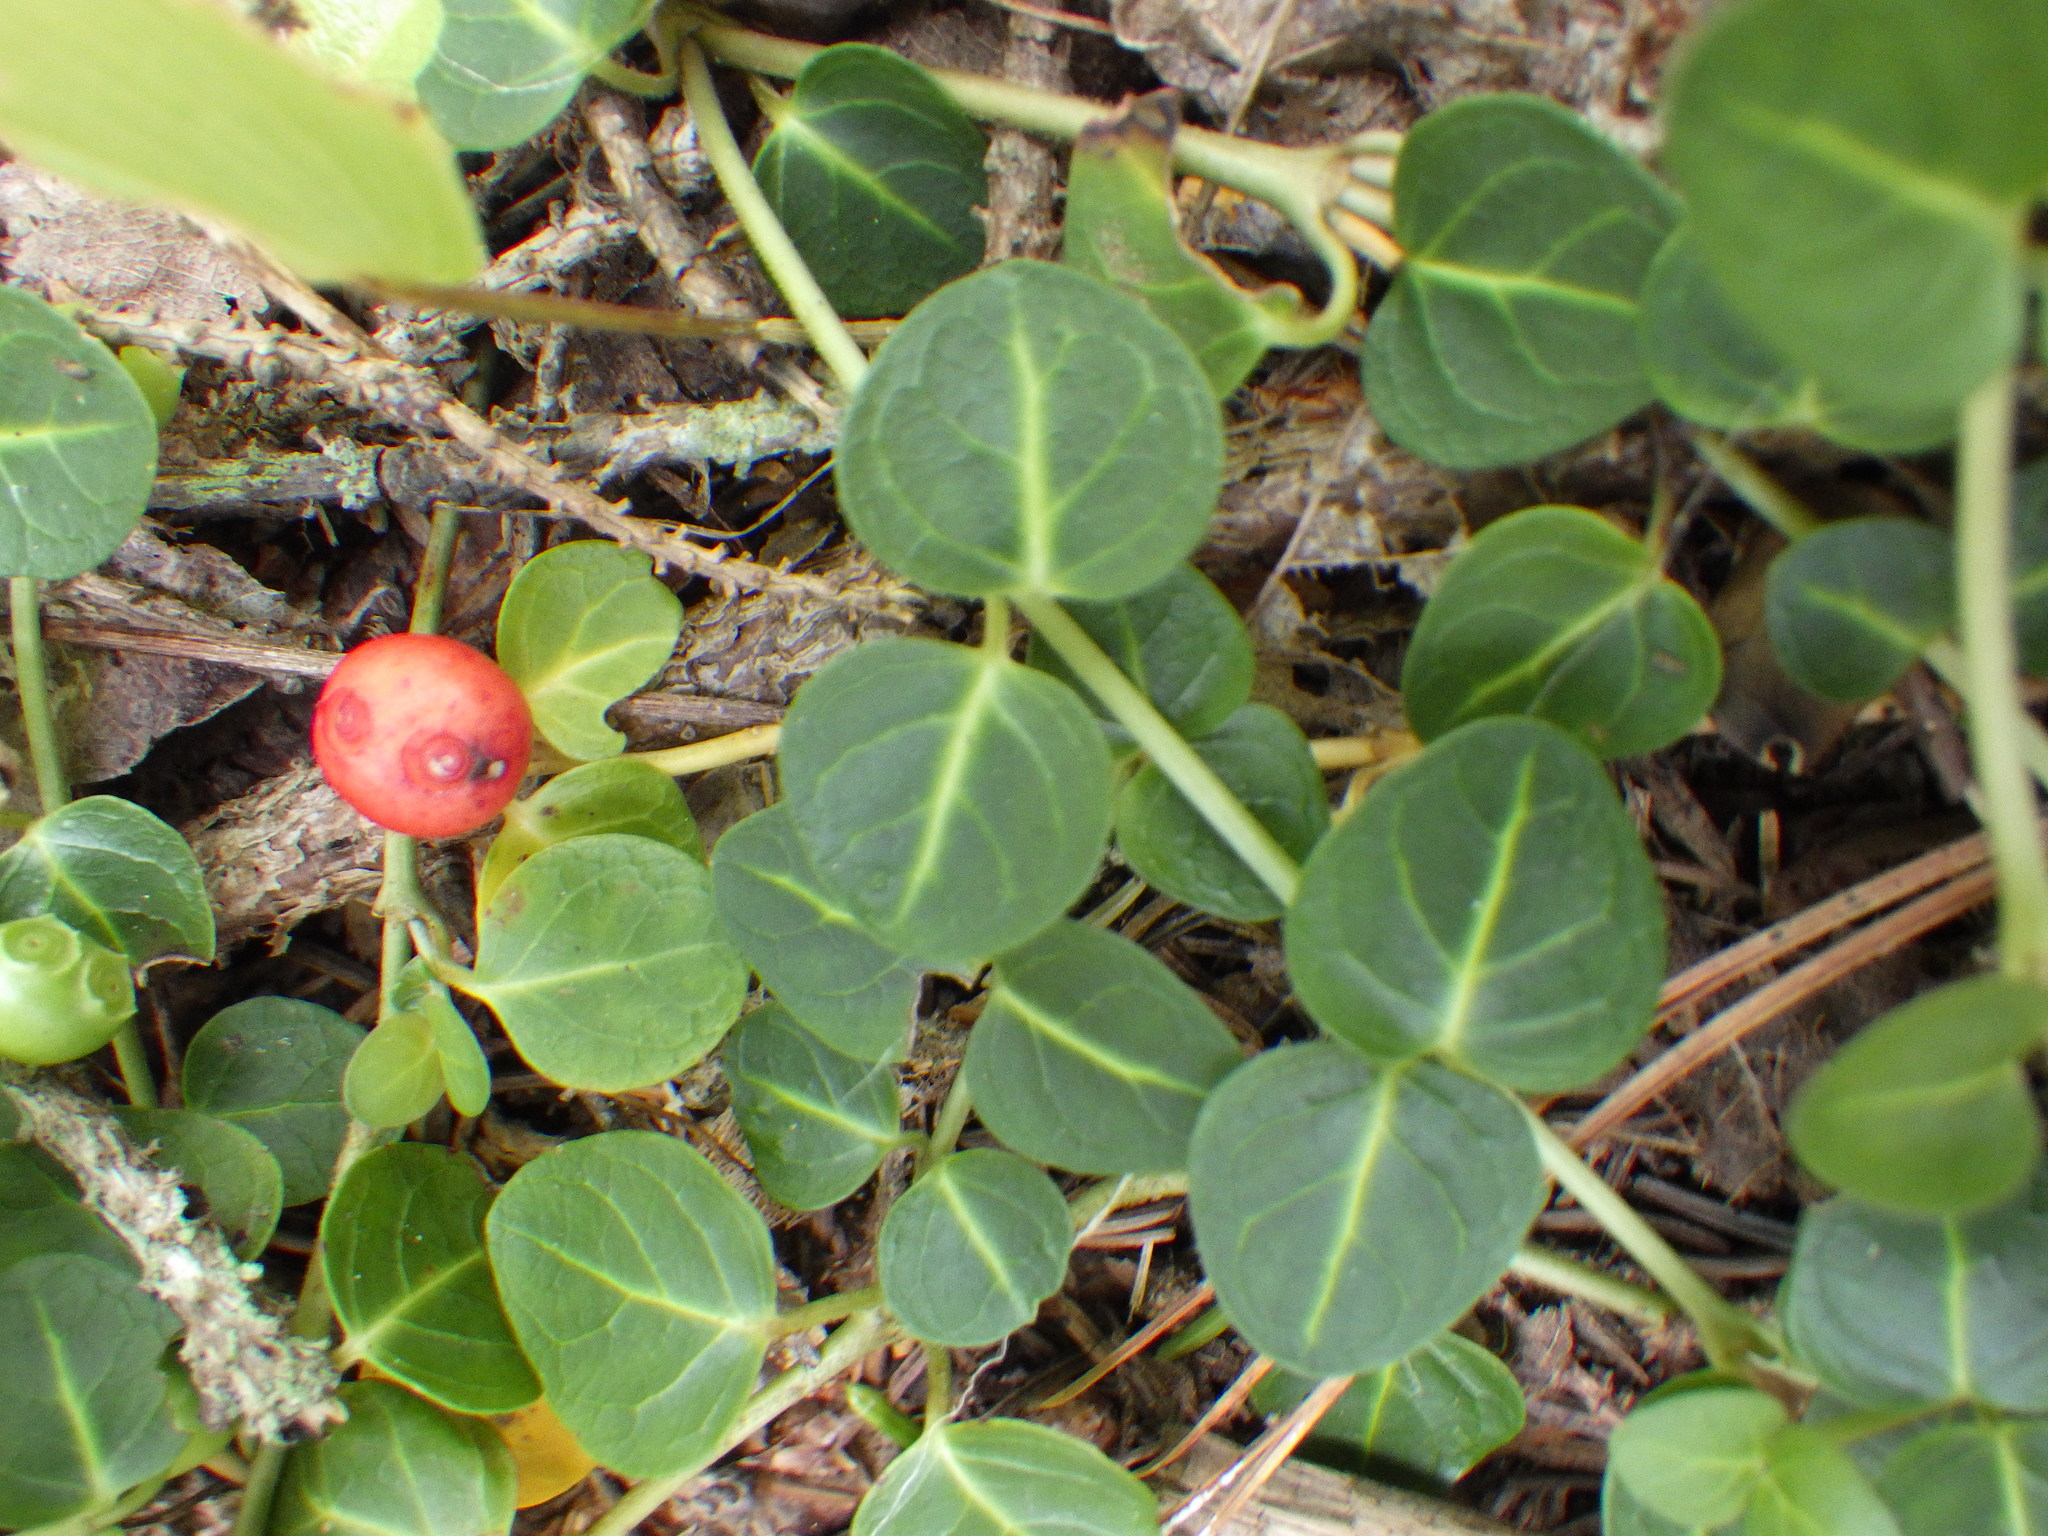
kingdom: Plantae
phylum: Tracheophyta
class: Magnoliopsida
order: Gentianales
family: Rubiaceae
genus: Mitchella
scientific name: Mitchella repens
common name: Partridge-berry
